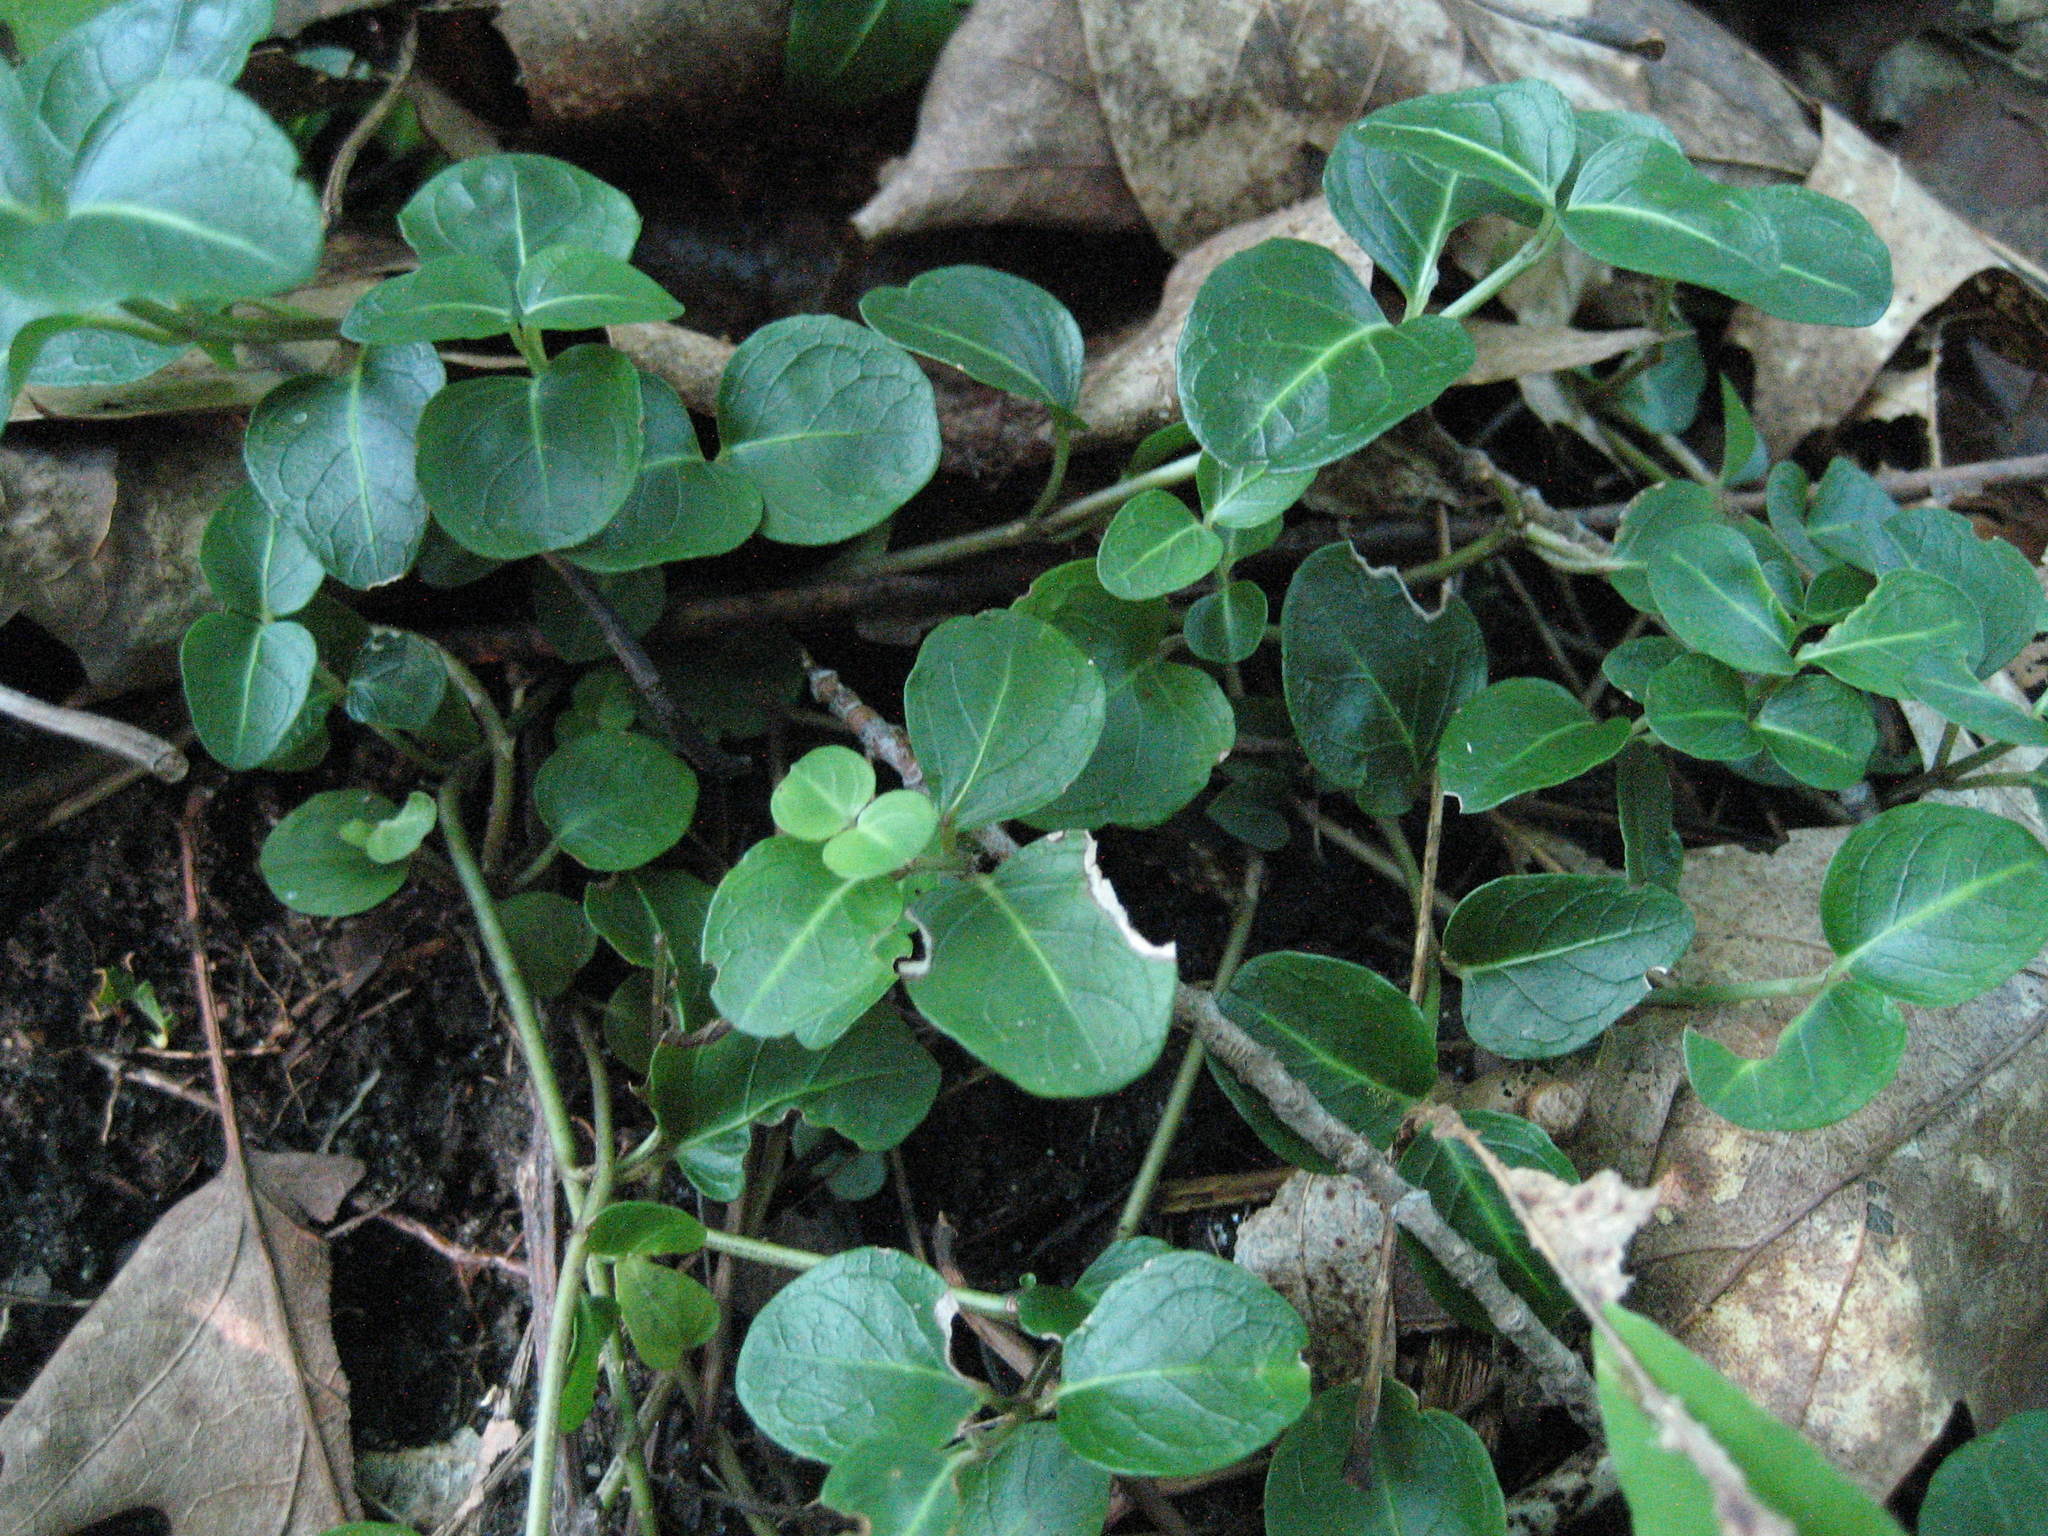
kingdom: Plantae
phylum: Tracheophyta
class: Magnoliopsida
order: Gentianales
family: Rubiaceae
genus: Mitchella
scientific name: Mitchella repens
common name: Partridge-berry
